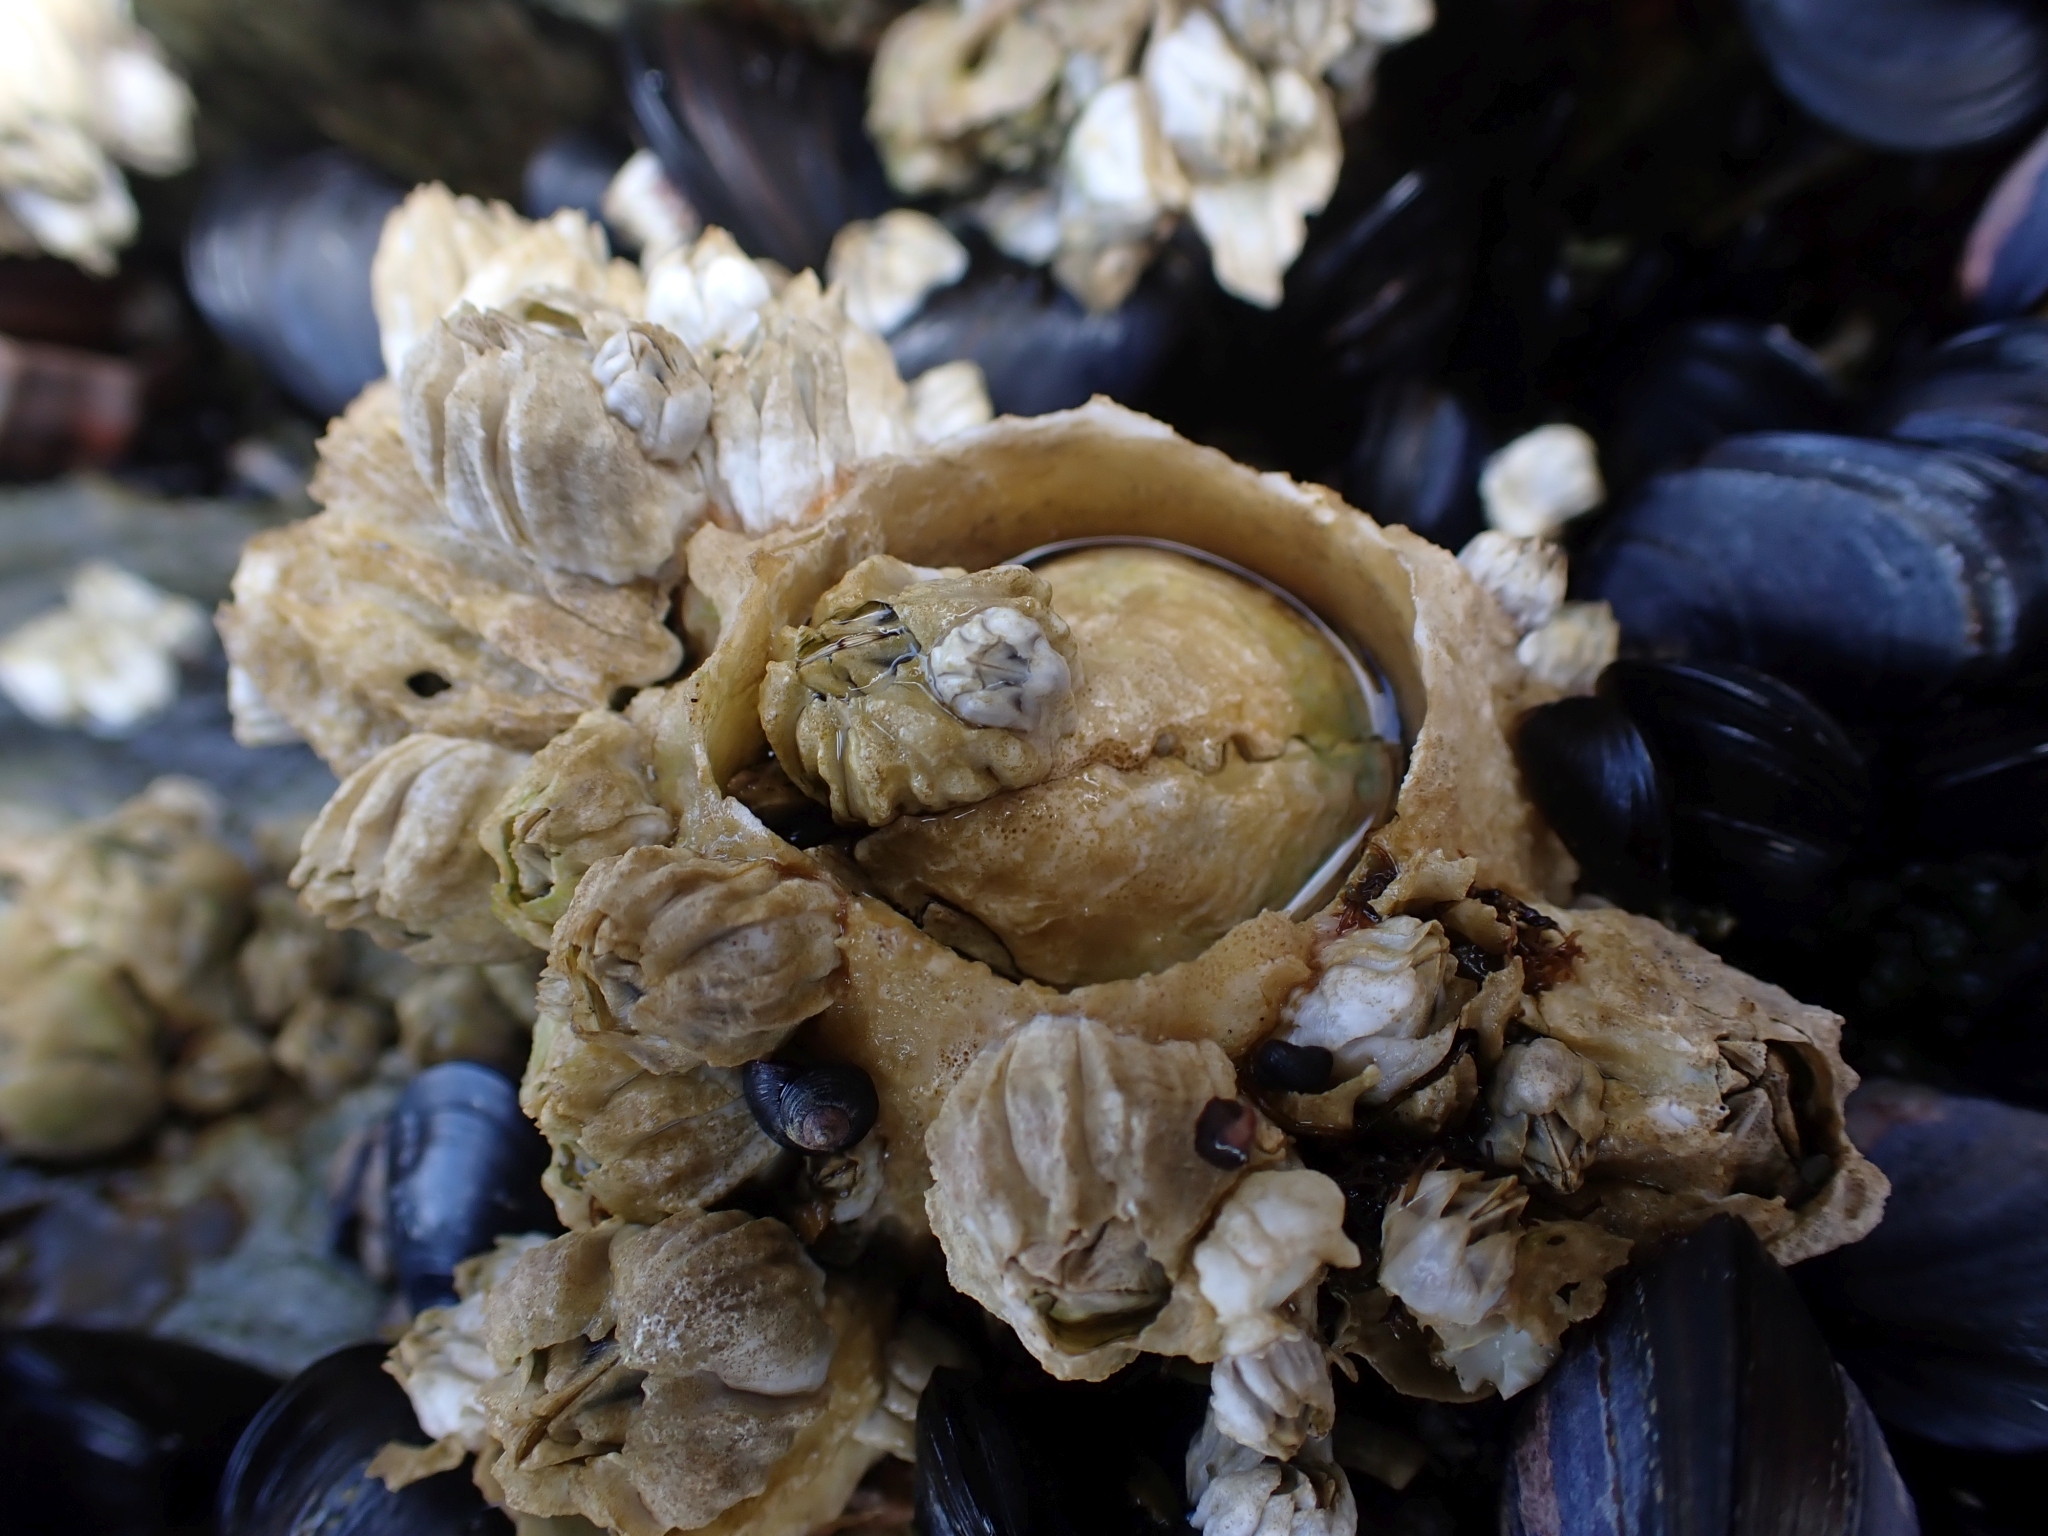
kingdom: Animalia
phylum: Arthropoda
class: Maxillopoda
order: Sessilia
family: Archaeobalanidae
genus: Semibalanus
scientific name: Semibalanus cariosus
